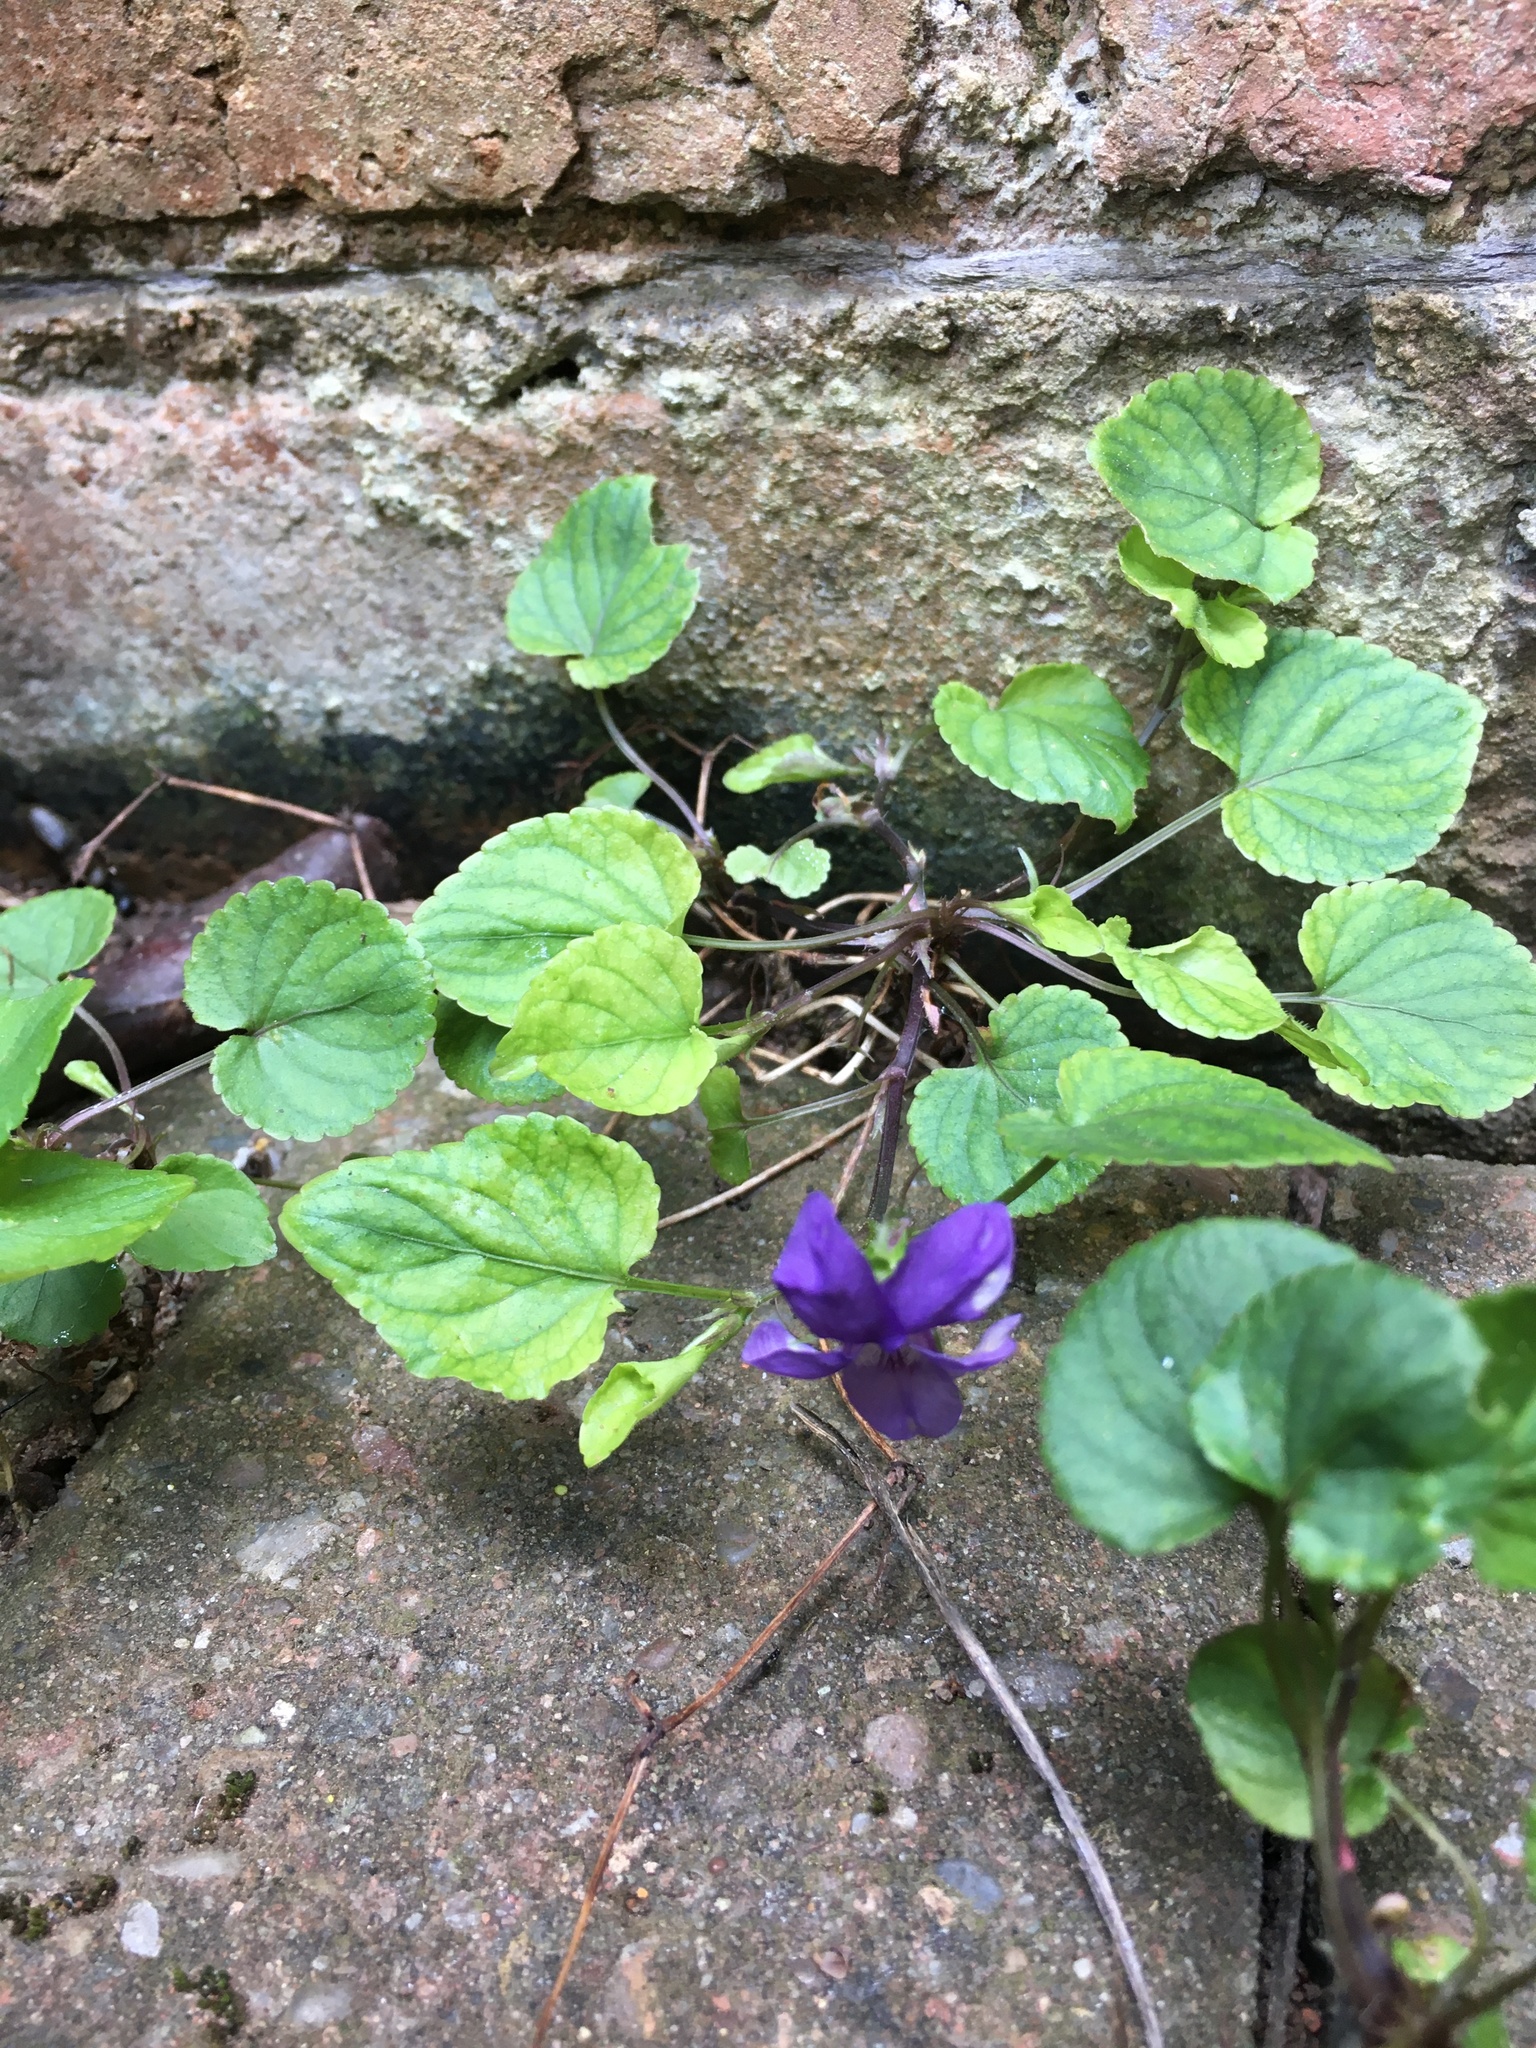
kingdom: Plantae
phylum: Tracheophyta
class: Magnoliopsida
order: Malpighiales
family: Violaceae
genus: Viola
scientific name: Viola riviniana
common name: Common dog-violet
